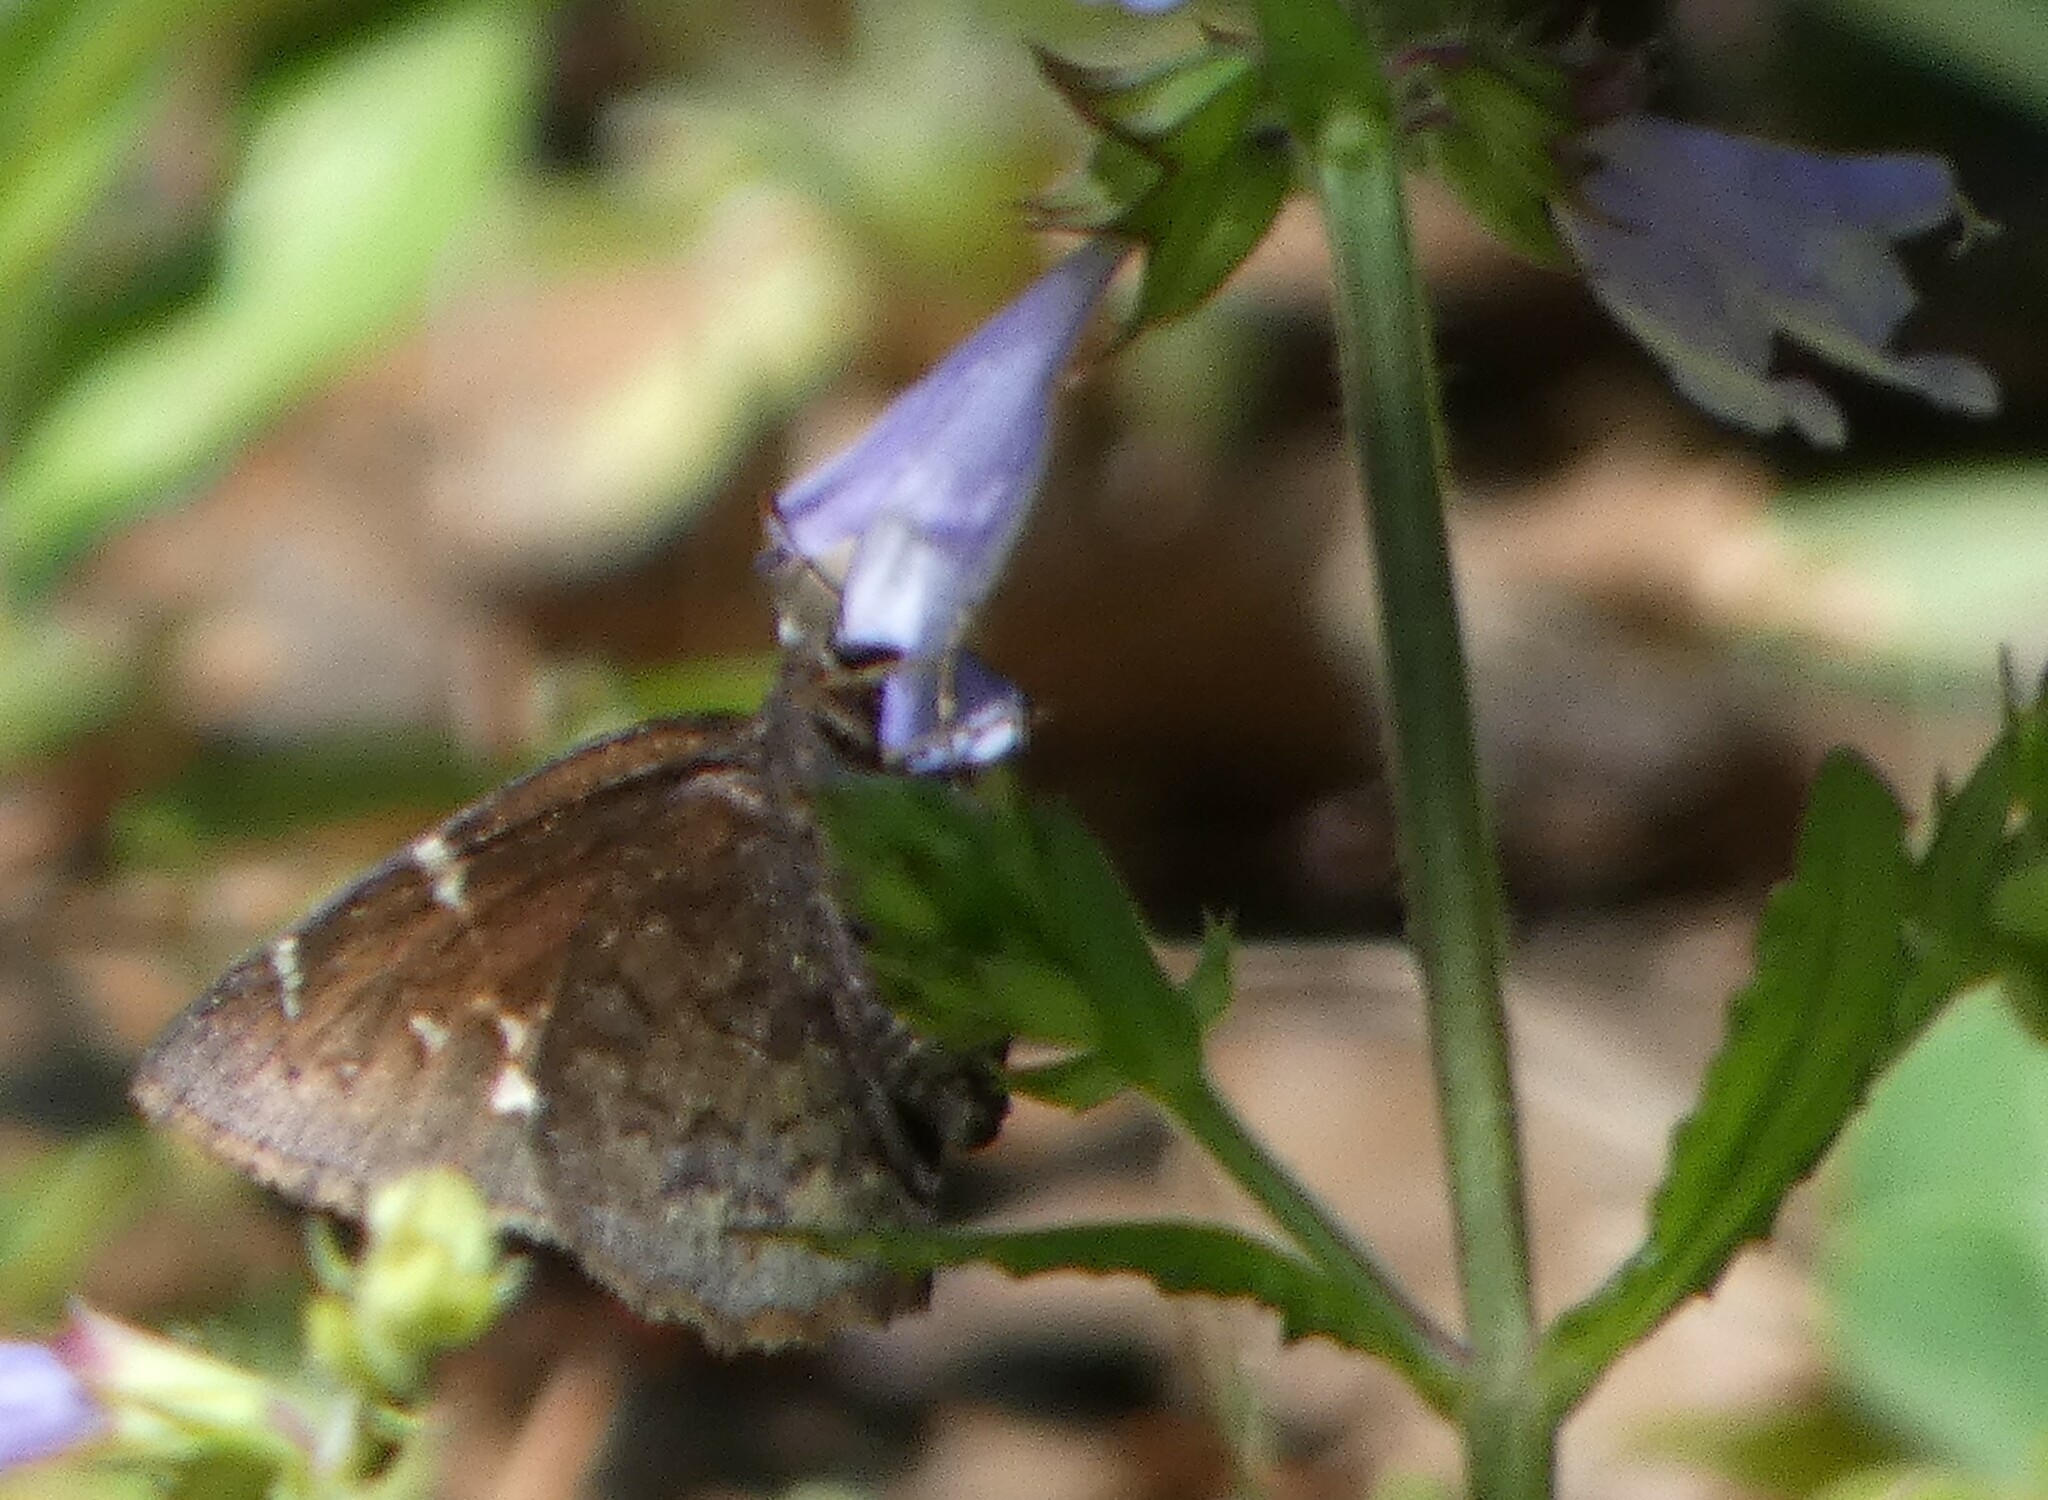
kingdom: Animalia
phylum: Arthropoda
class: Insecta
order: Lepidoptera
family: Hesperiidae
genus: Thorybes
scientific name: Thorybes pylades
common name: Northern cloudywing
